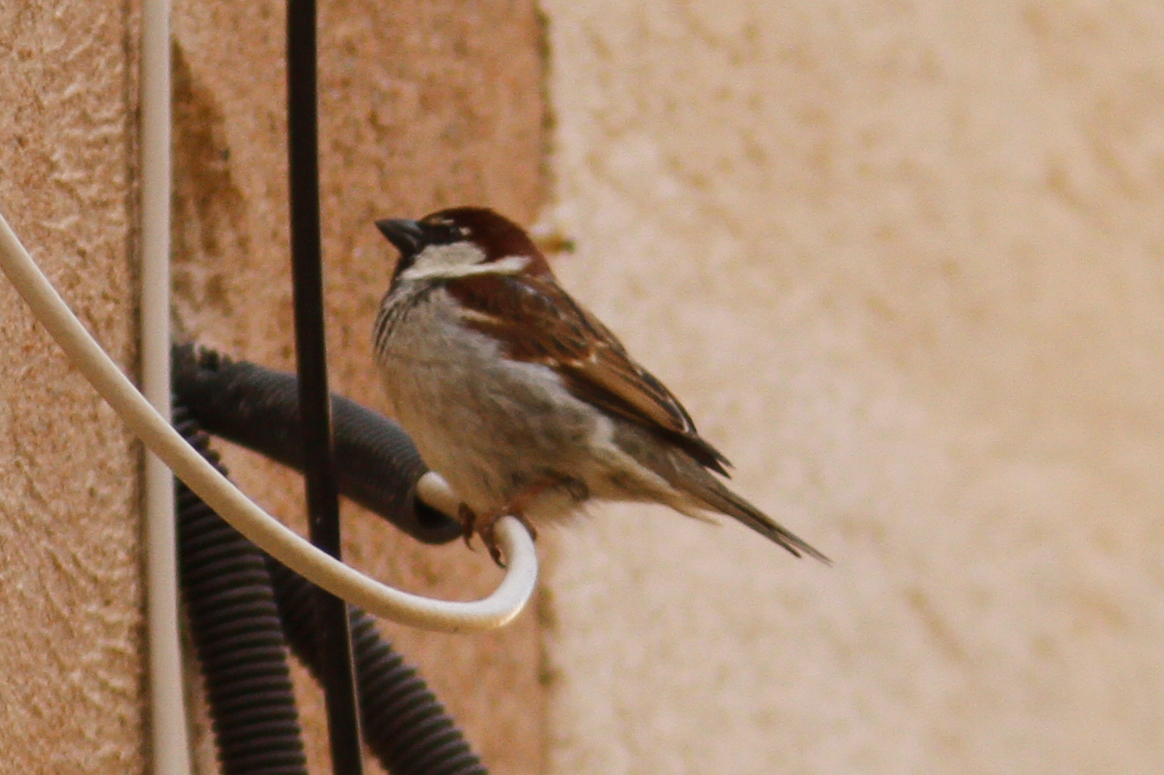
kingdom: Animalia
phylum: Chordata
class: Aves
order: Passeriformes
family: Passeridae
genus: Passer
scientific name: Passer italiae
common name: Italian sparrow
